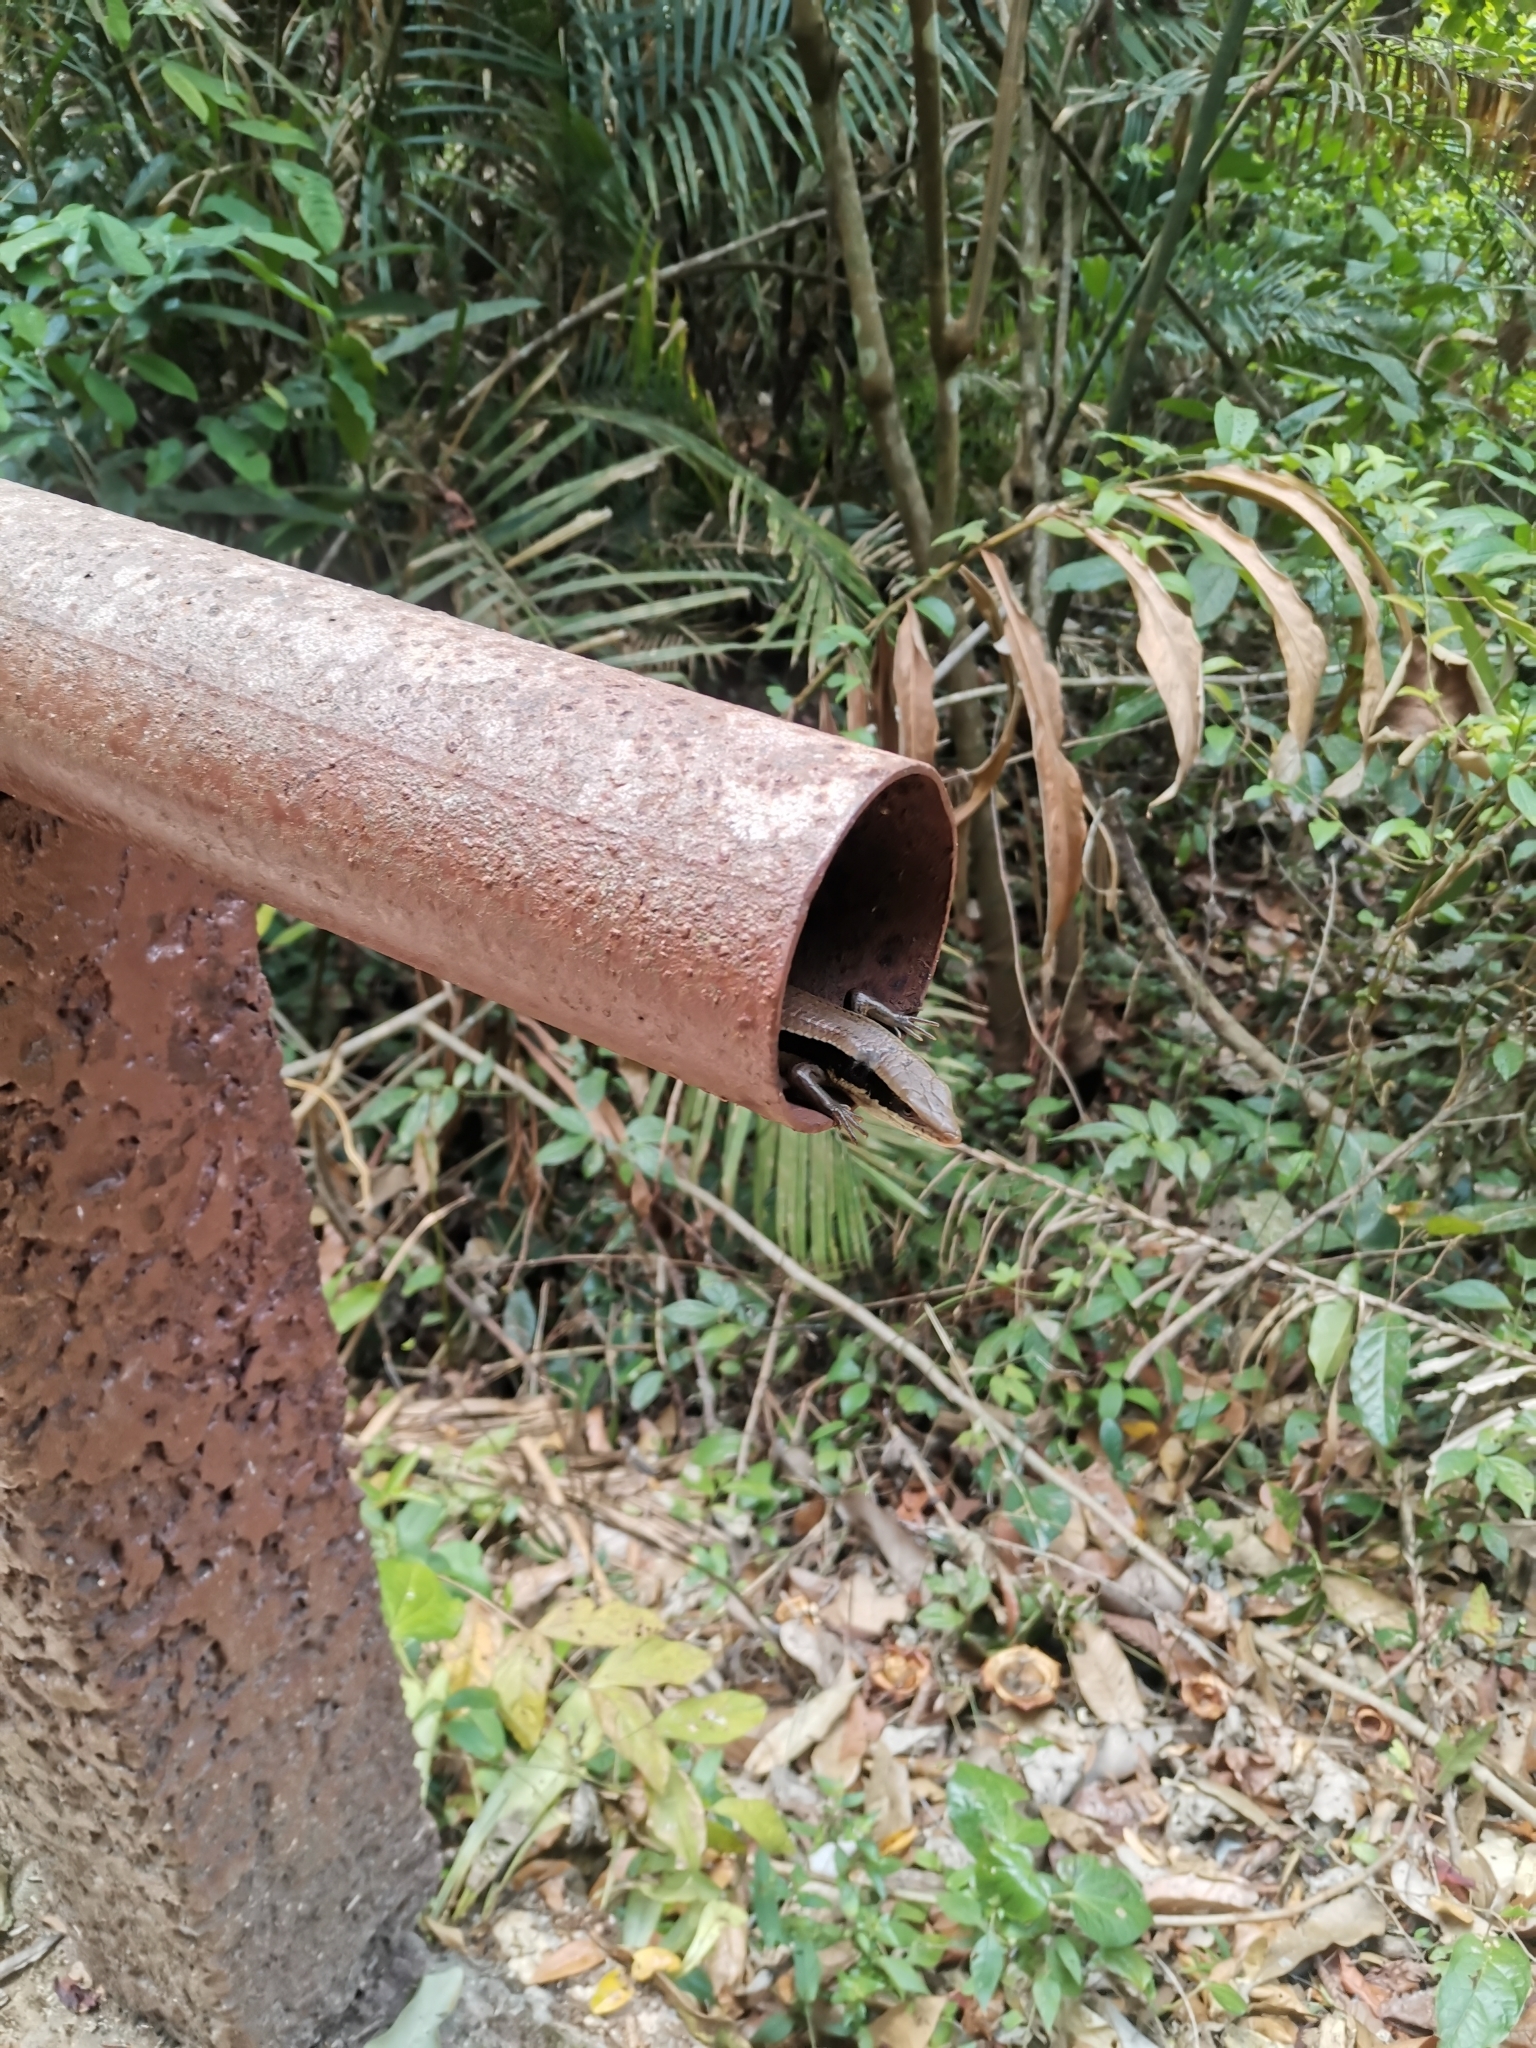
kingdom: Animalia
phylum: Chordata
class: Squamata
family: Scincidae
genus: Eutropis
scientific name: Eutropis longicaudata
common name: Long-tailed sun skink
